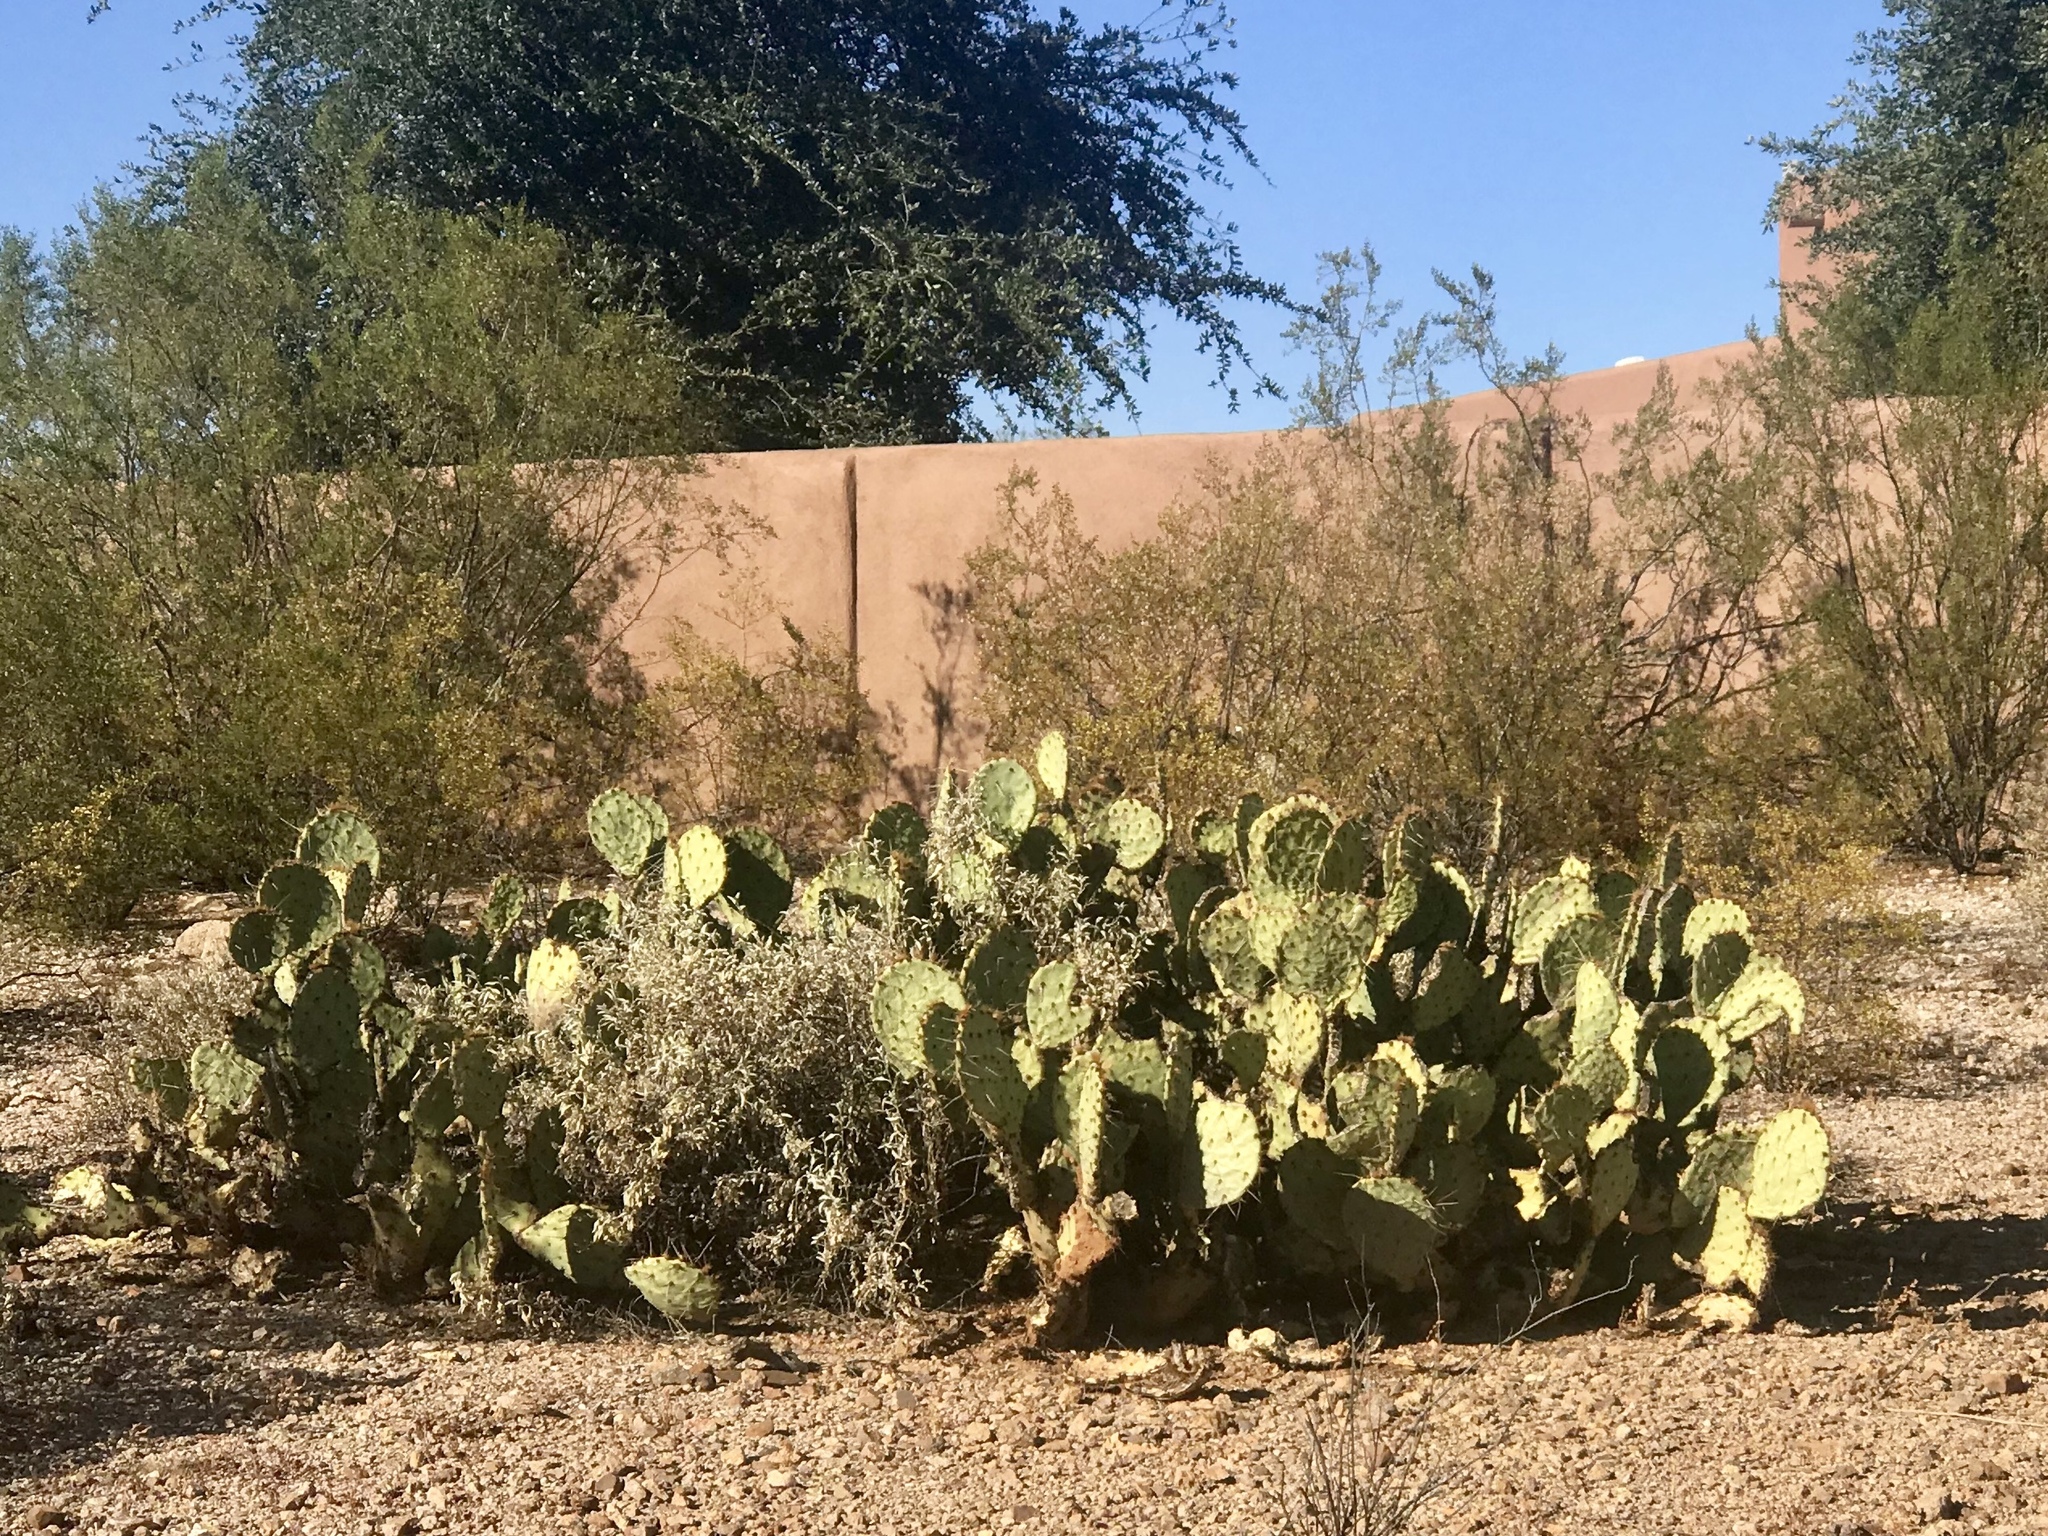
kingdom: Plantae
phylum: Tracheophyta
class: Magnoliopsida
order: Caryophyllales
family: Cactaceae
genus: Opuntia
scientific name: Opuntia engelmannii
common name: Cactus-apple
